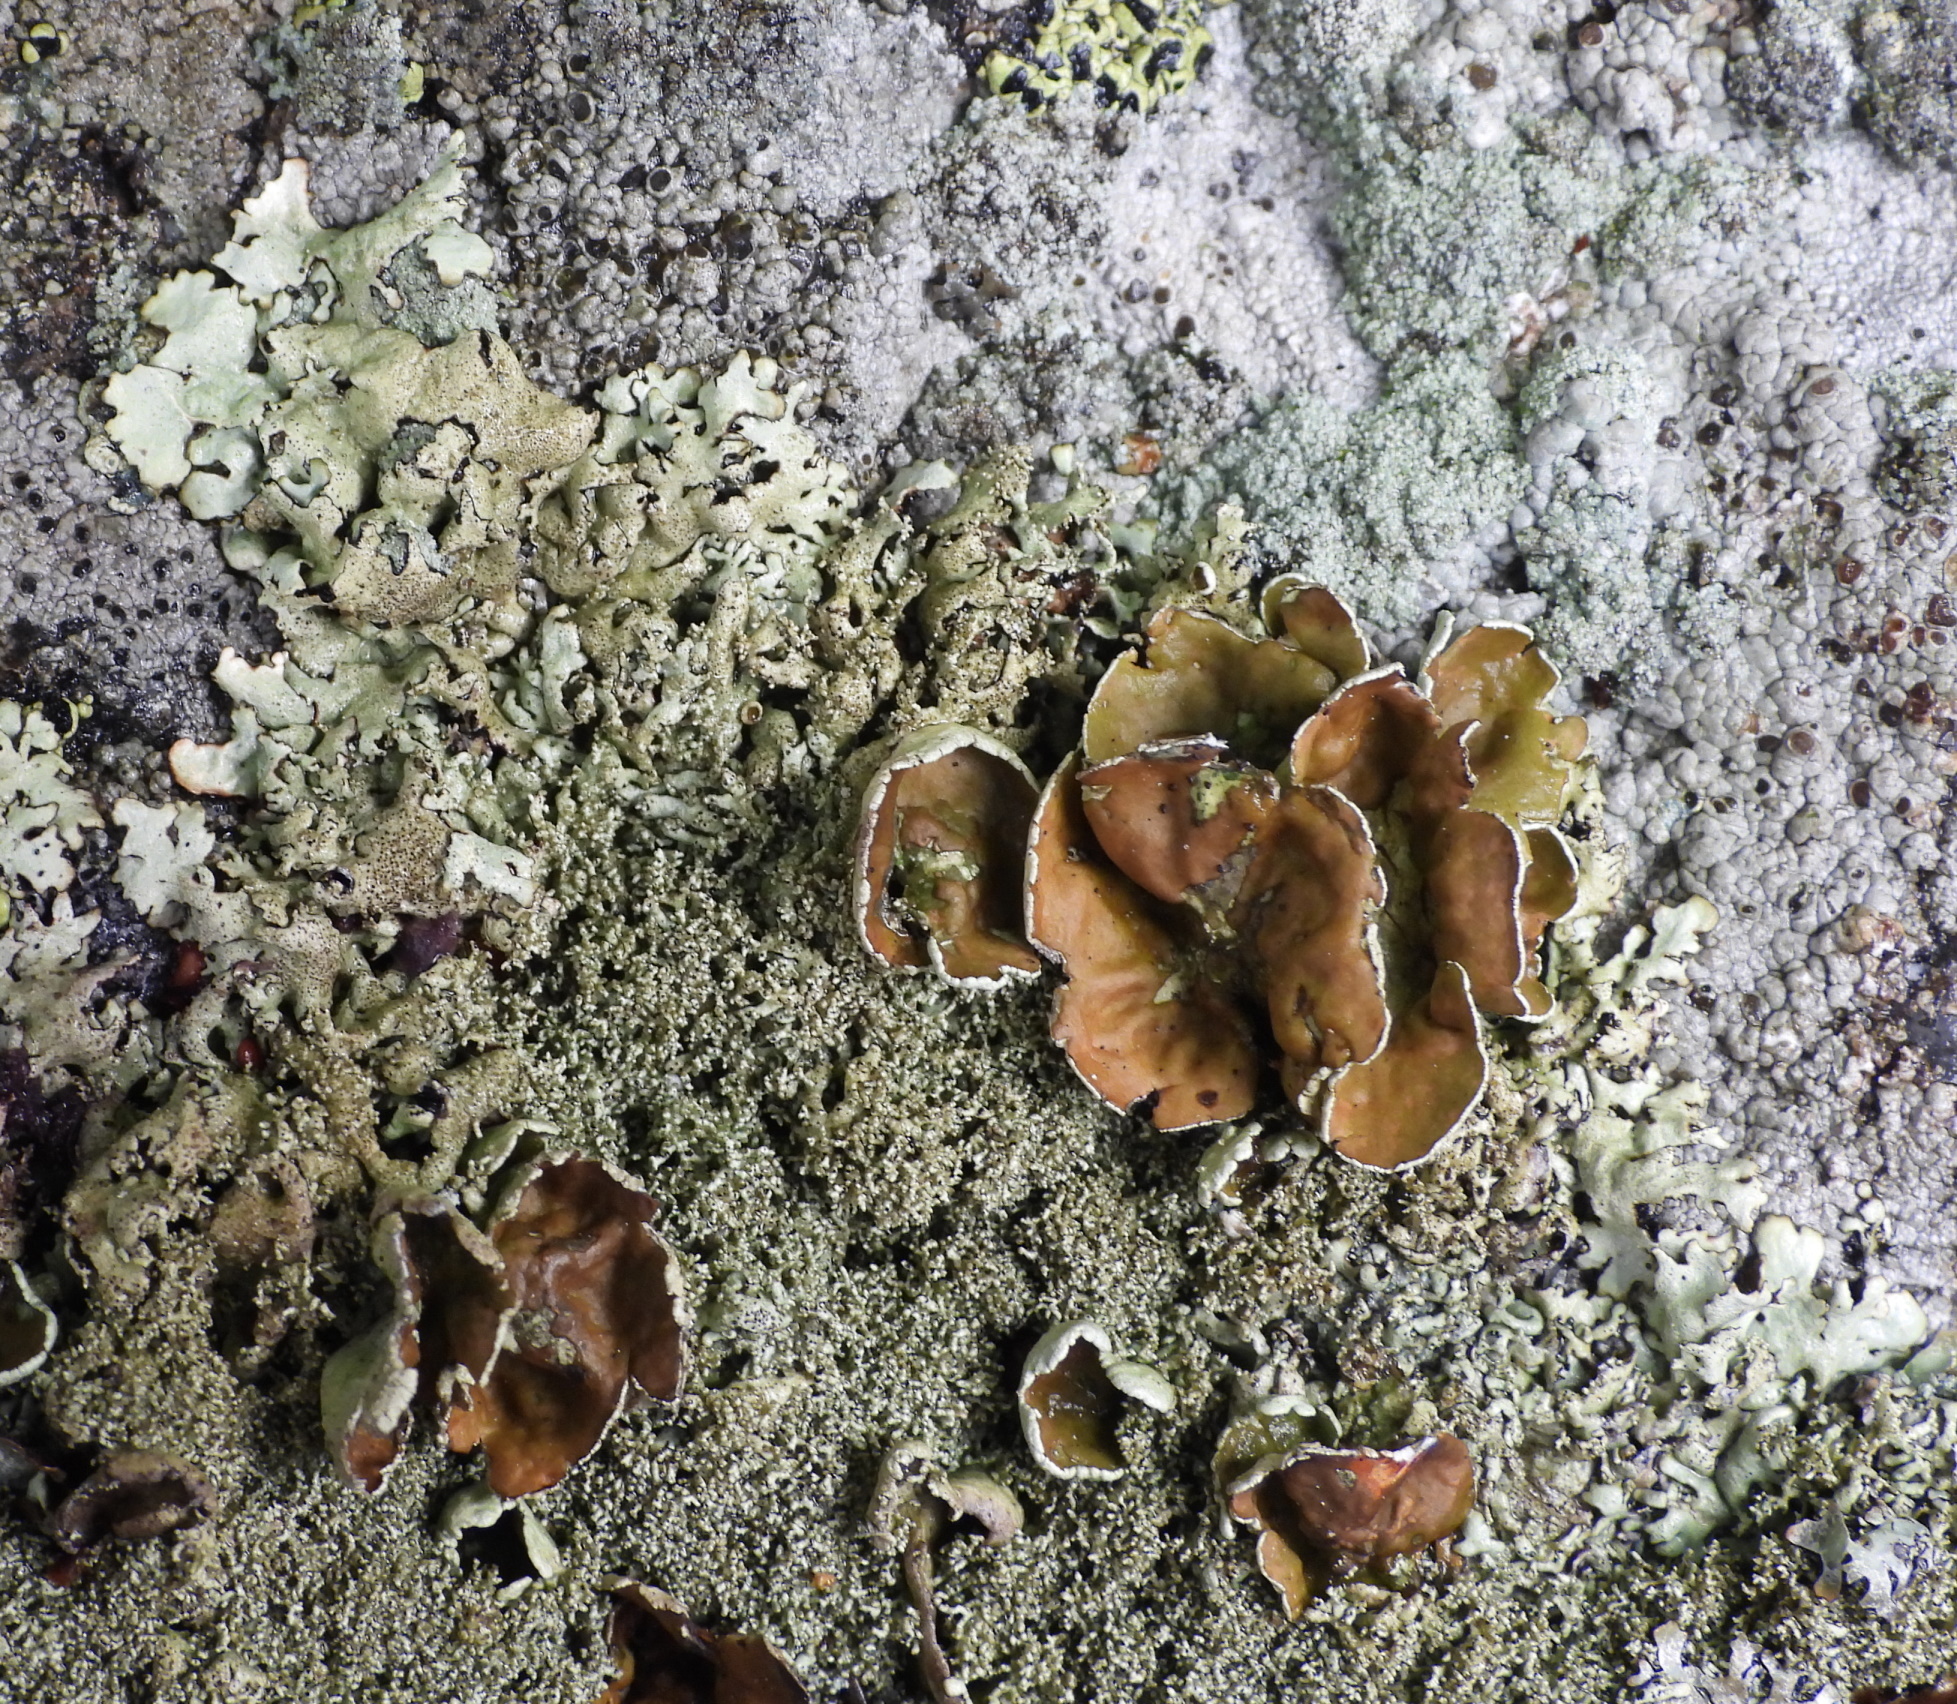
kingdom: Fungi
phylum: Ascomycota
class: Lecanoromycetes
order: Lecanorales
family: Parmeliaceae
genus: Xanthoparmelia
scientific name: Xanthoparmelia conspersa
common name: Peppered rock shield
